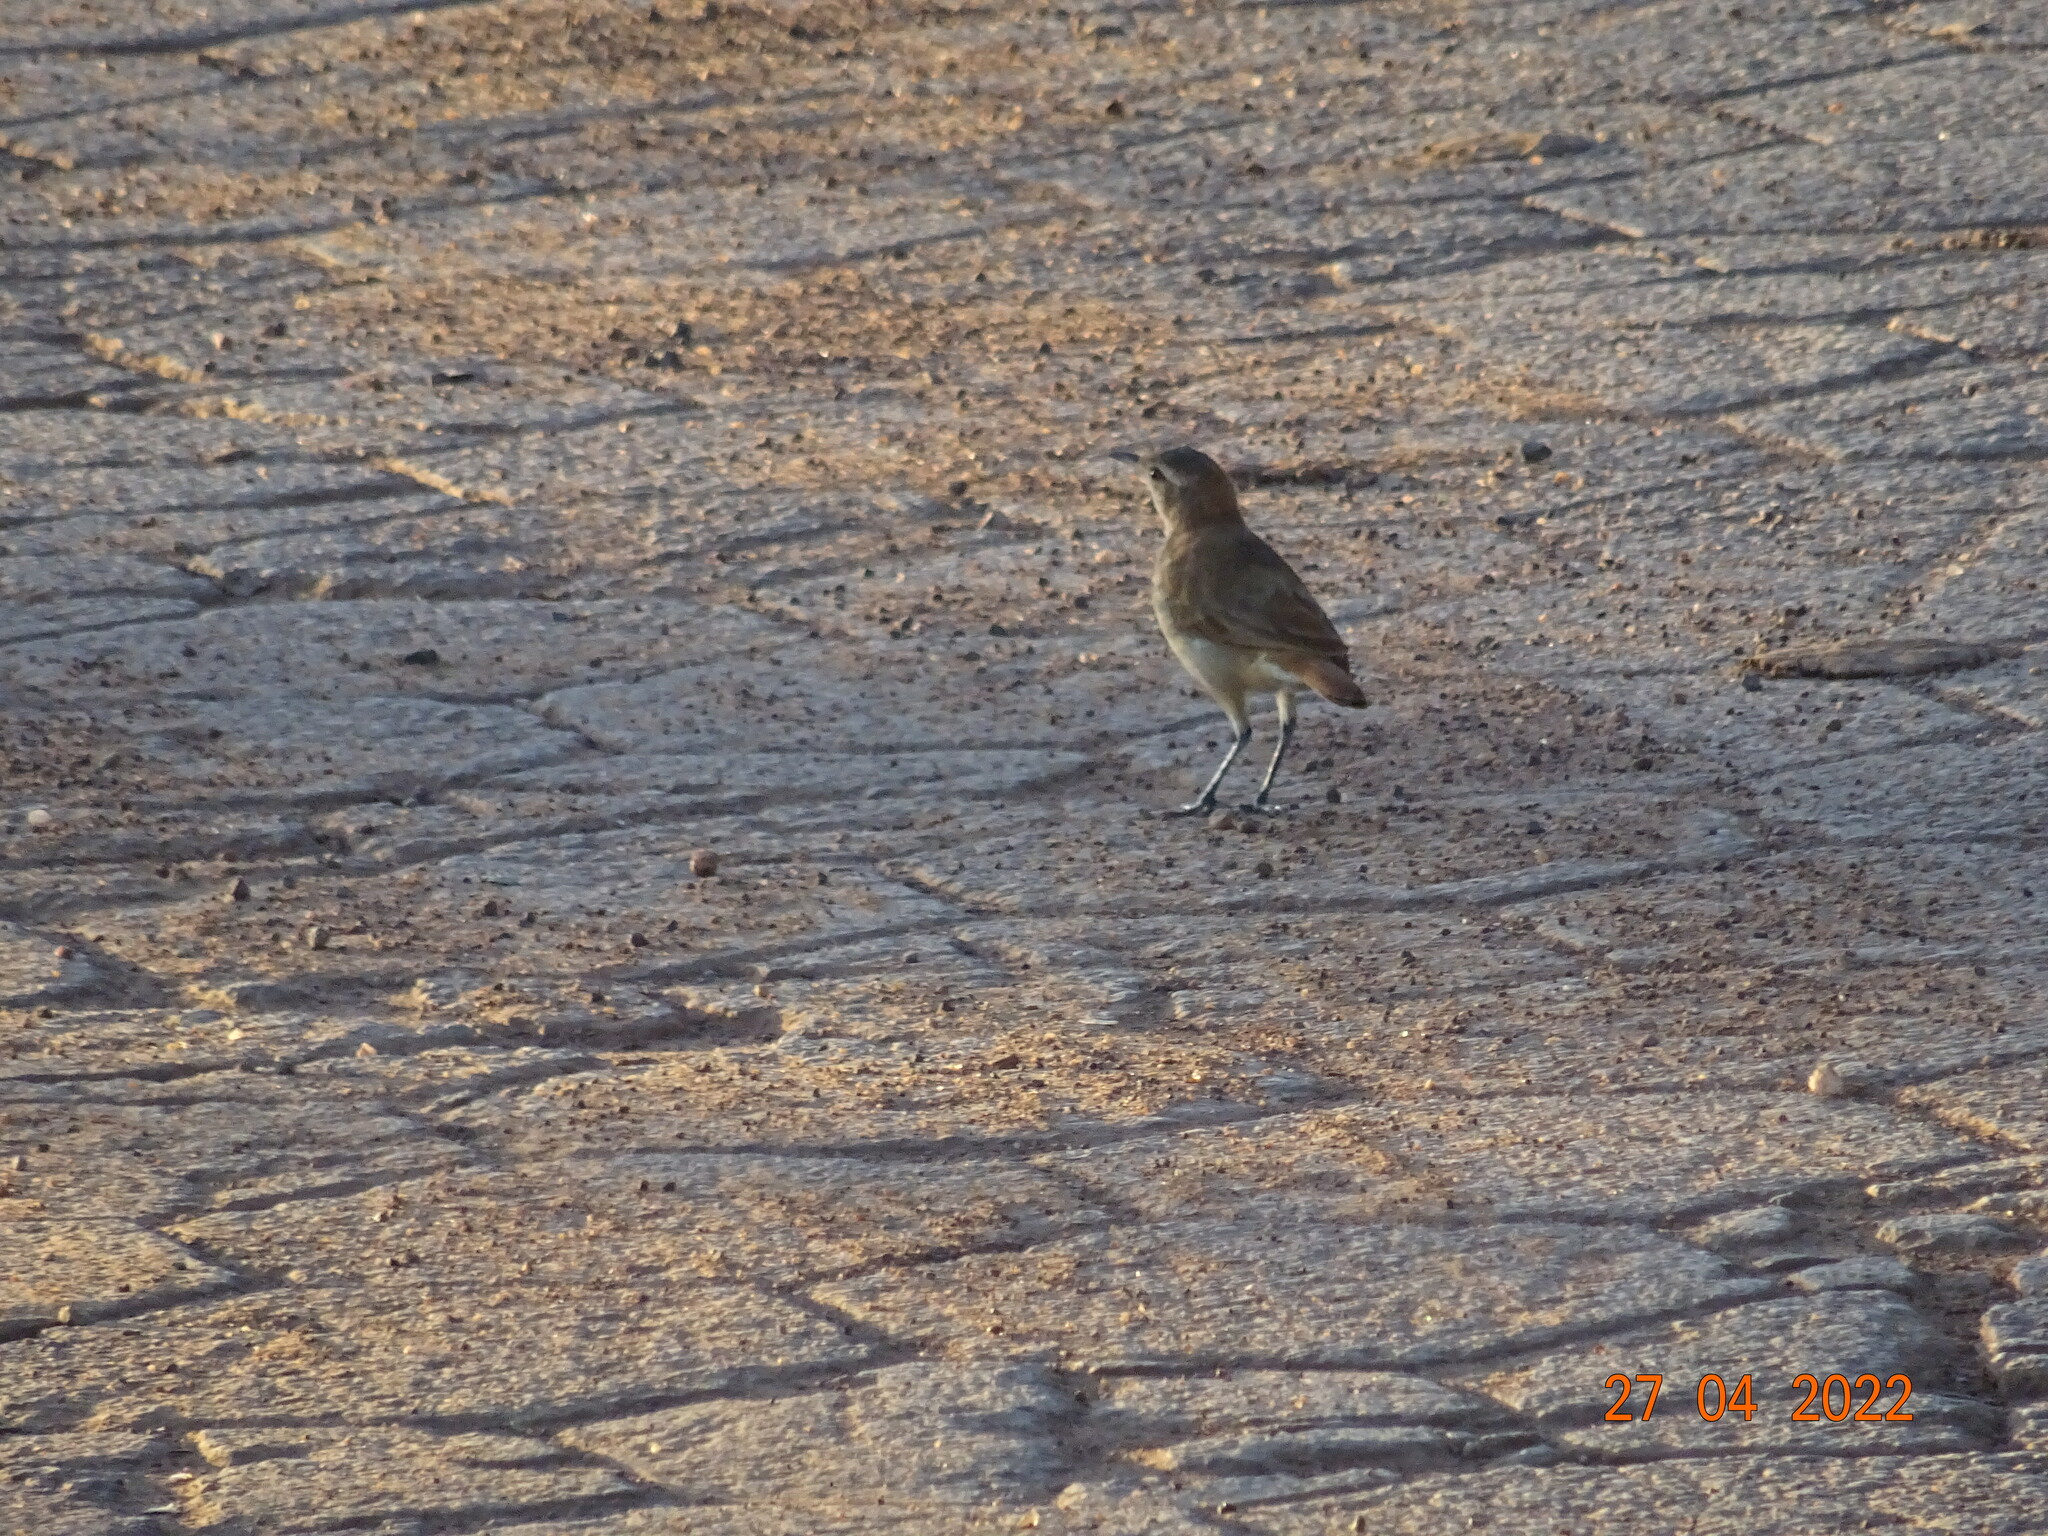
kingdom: Animalia
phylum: Chordata
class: Aves
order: Passeriformes
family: Furnariidae
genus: Furnarius
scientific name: Furnarius rufus
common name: Rufous hornero
